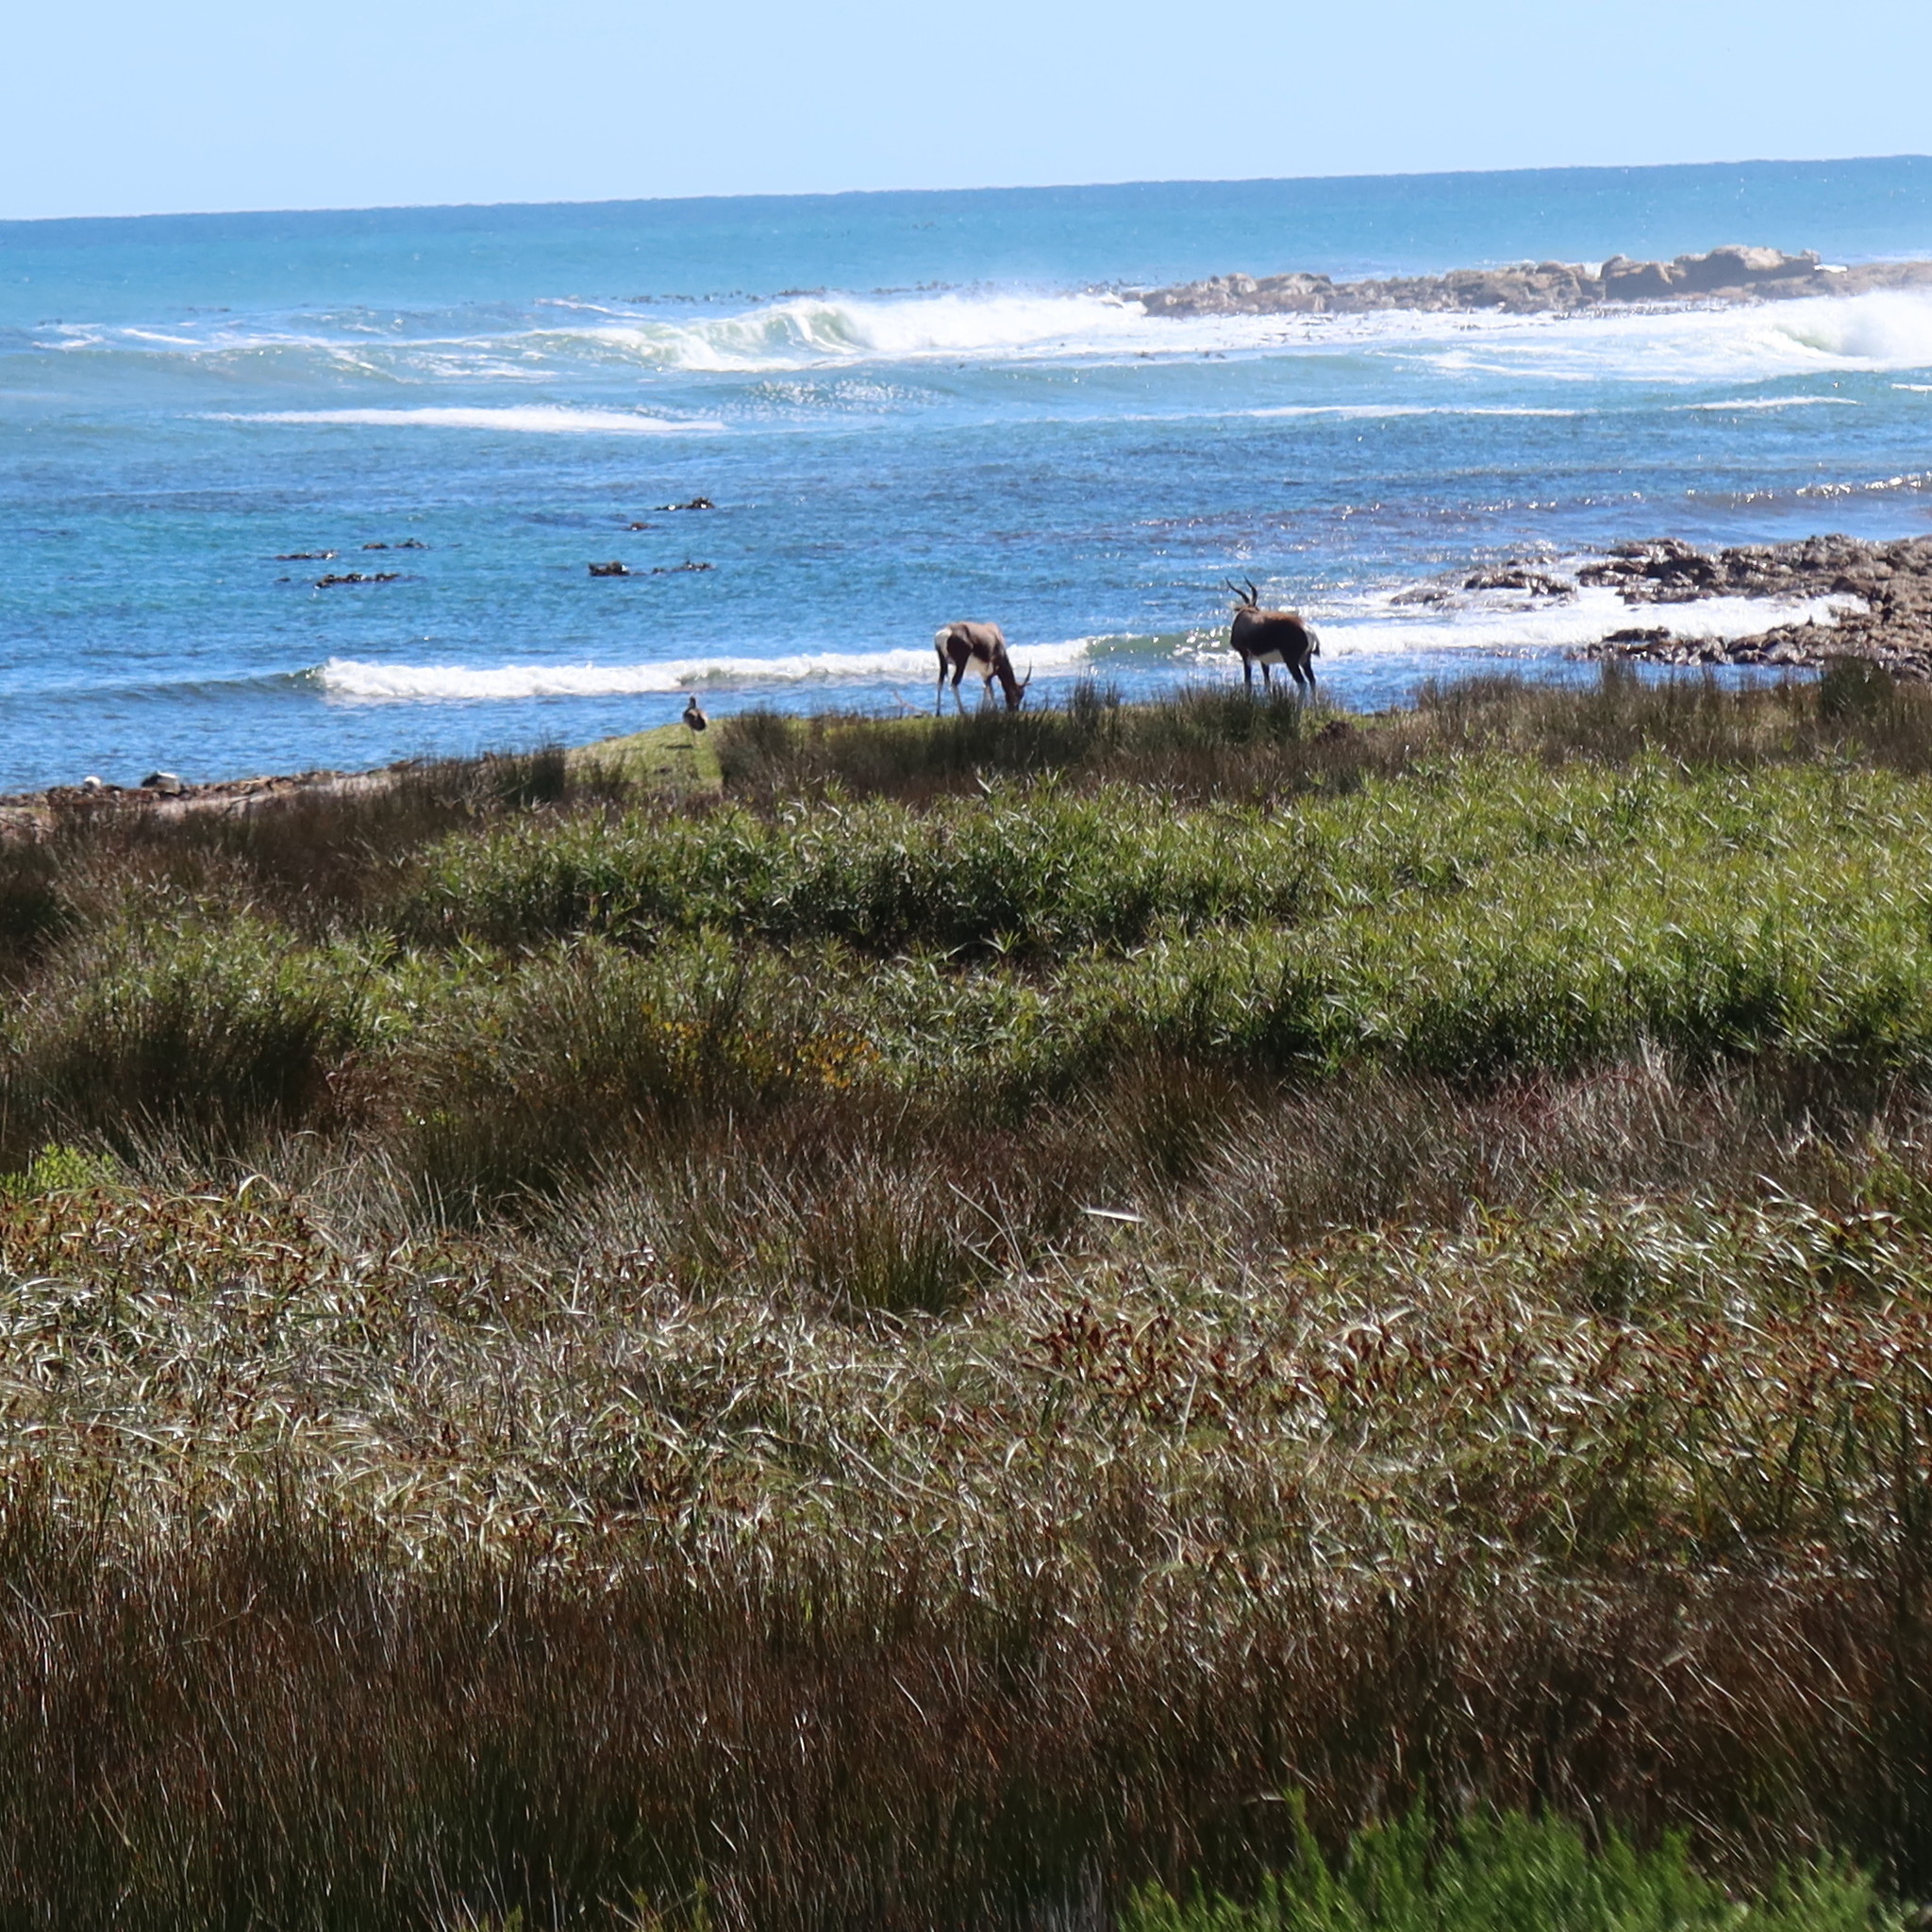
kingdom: Animalia
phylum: Chordata
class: Mammalia
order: Artiodactyla
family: Bovidae
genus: Damaliscus
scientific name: Damaliscus pygargus
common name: Bontebok
